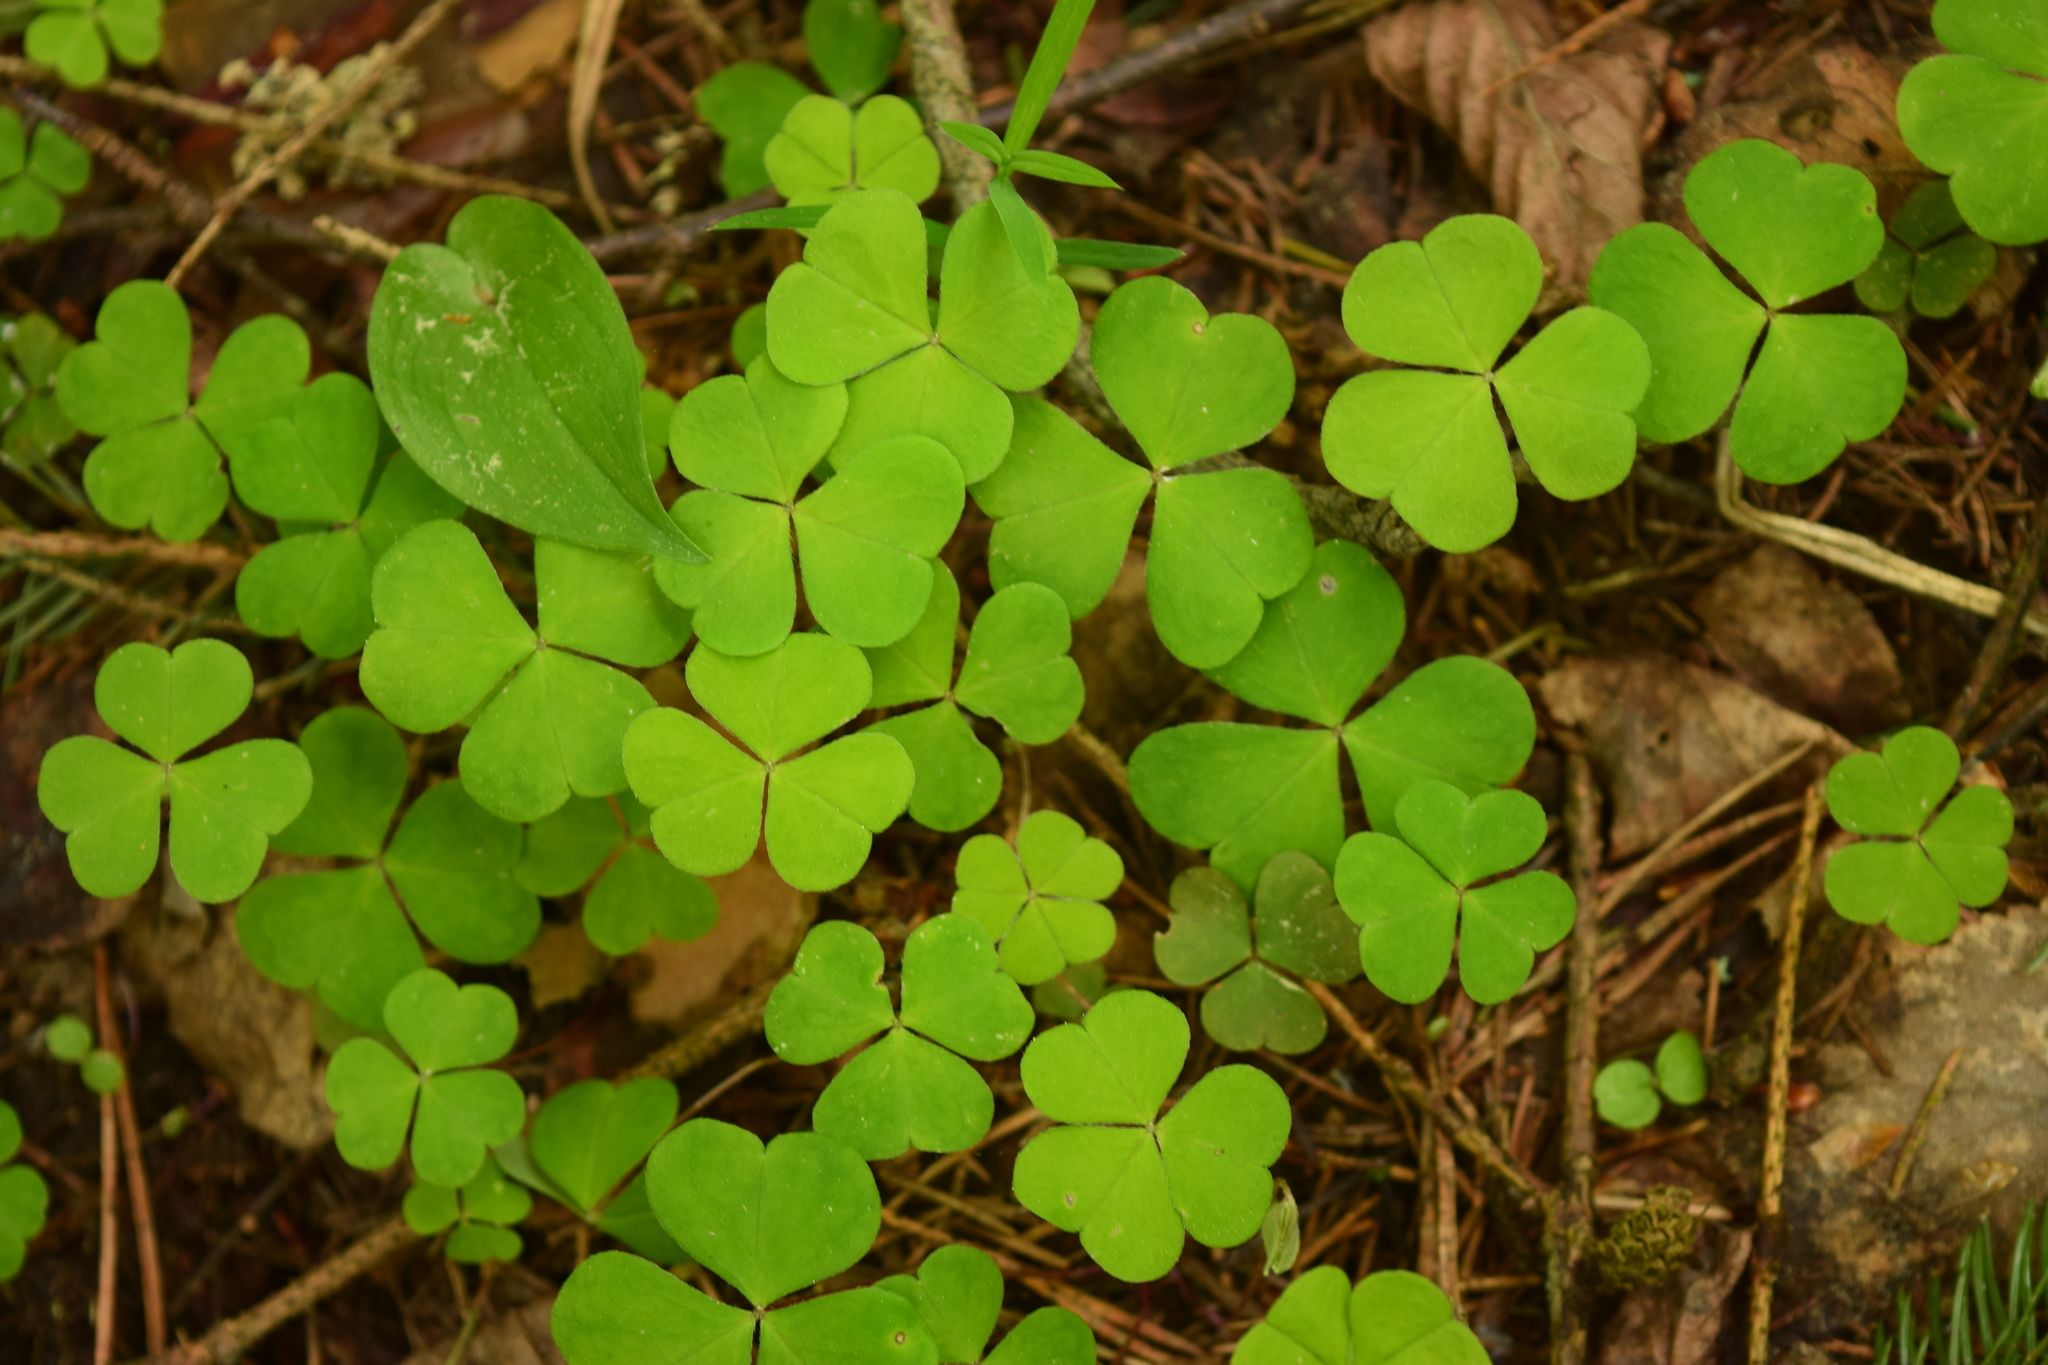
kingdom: Plantae
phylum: Tracheophyta
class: Magnoliopsida
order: Oxalidales
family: Oxalidaceae
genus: Oxalis
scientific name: Oxalis acetosella
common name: Wood-sorrel
